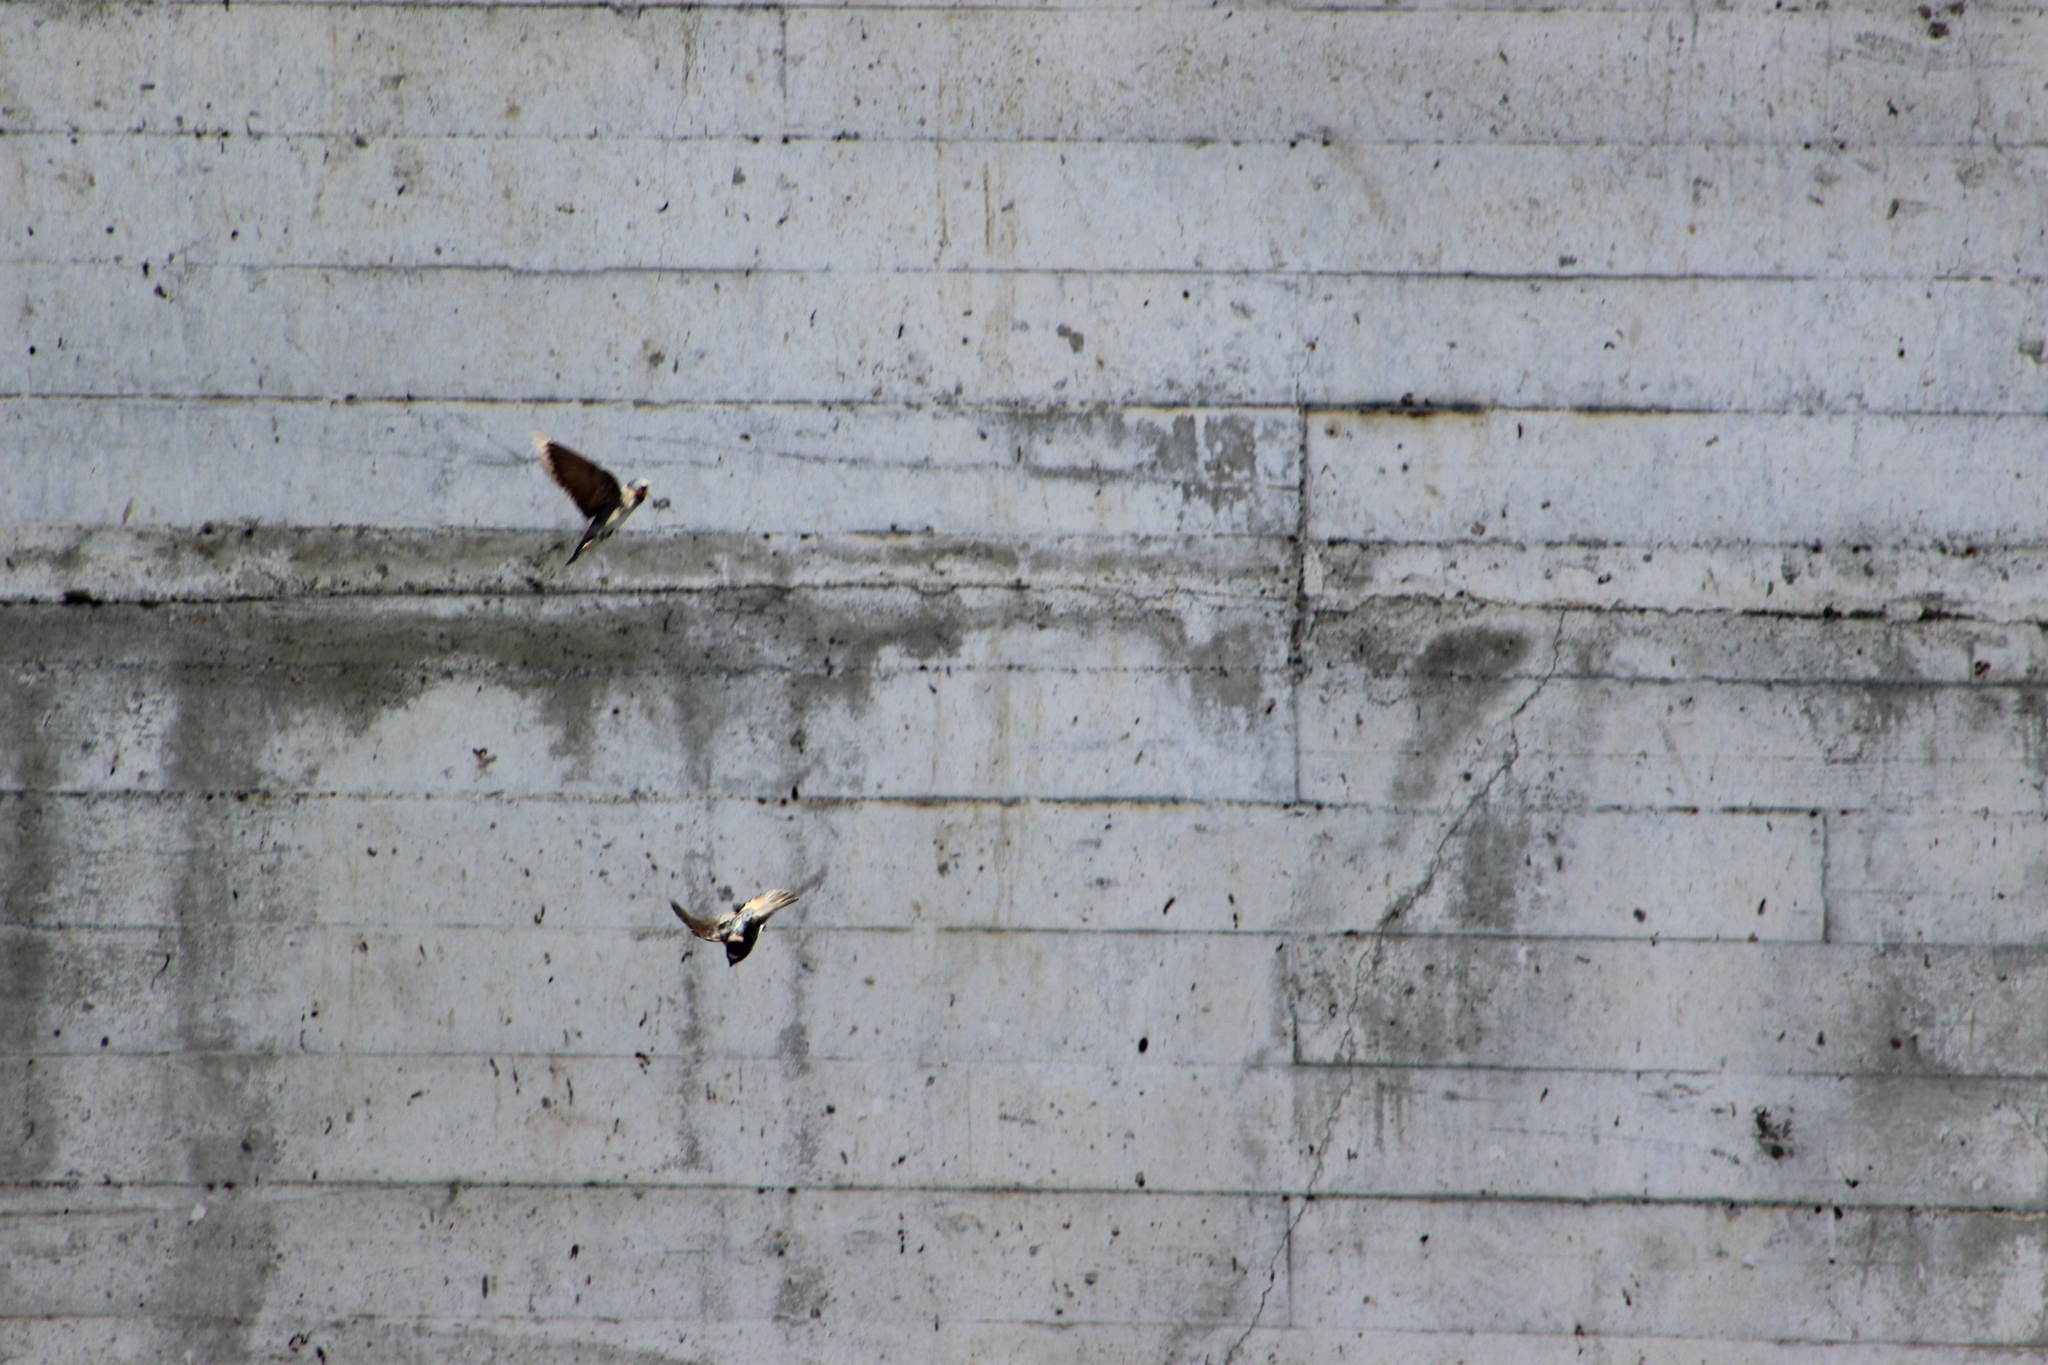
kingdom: Animalia
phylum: Chordata
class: Aves
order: Passeriformes
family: Hirundinidae
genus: Petrochelidon
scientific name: Petrochelidon pyrrhonota
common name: American cliff swallow
